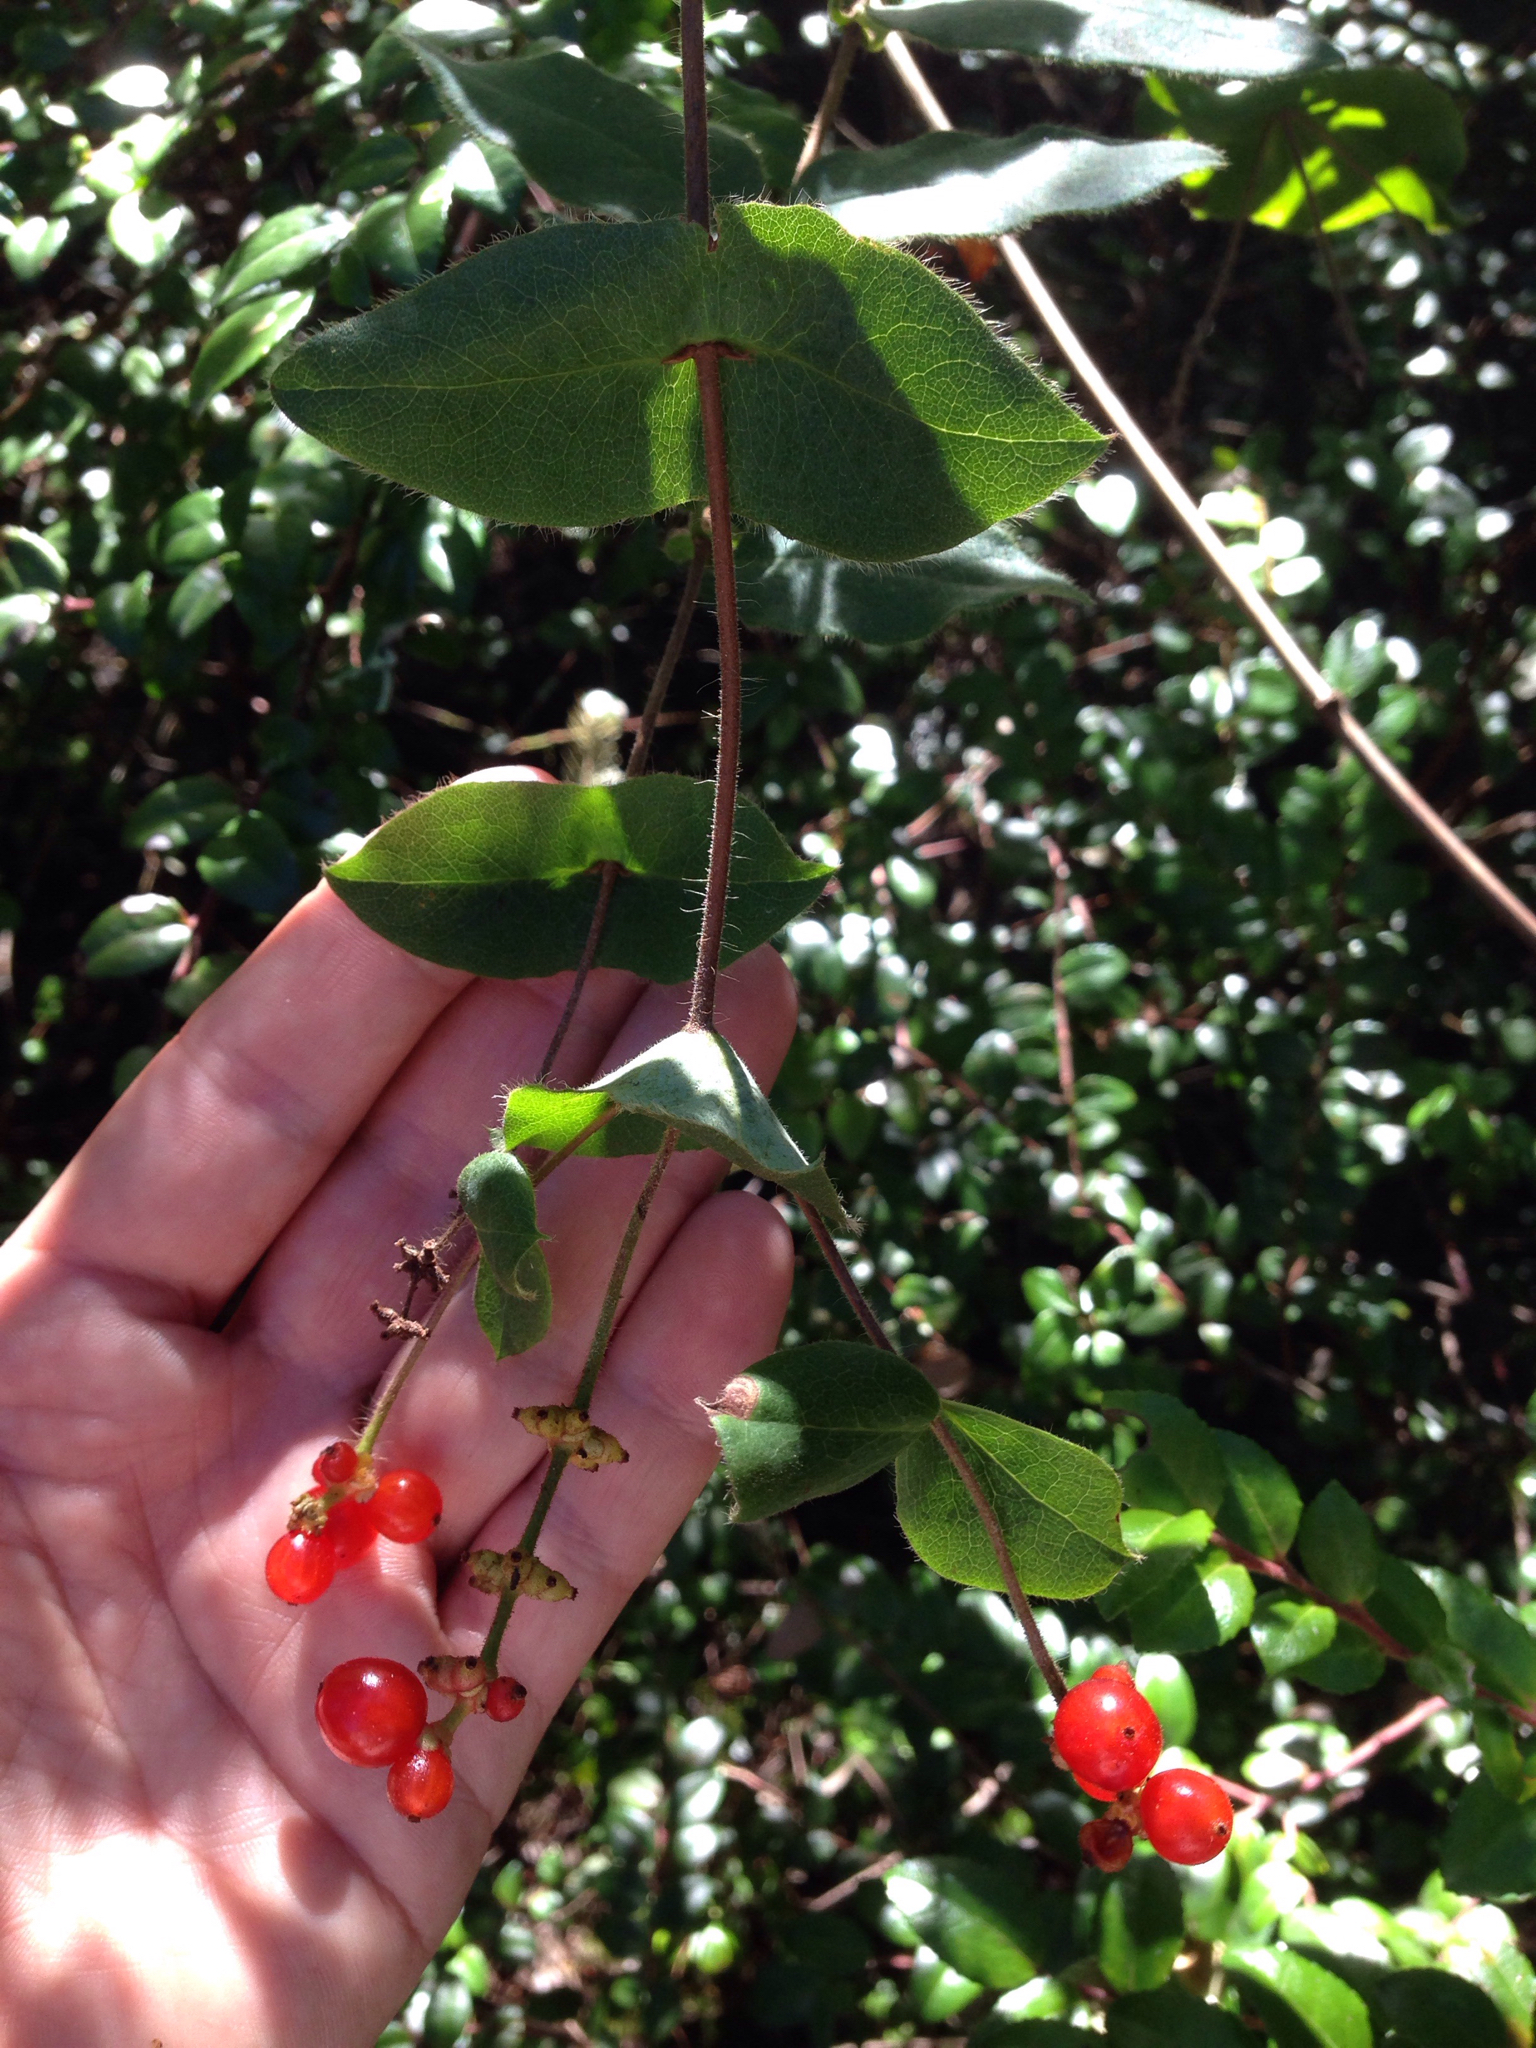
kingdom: Plantae
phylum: Tracheophyta
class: Magnoliopsida
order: Dipsacales
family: Caprifoliaceae
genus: Lonicera
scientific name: Lonicera hispidula
